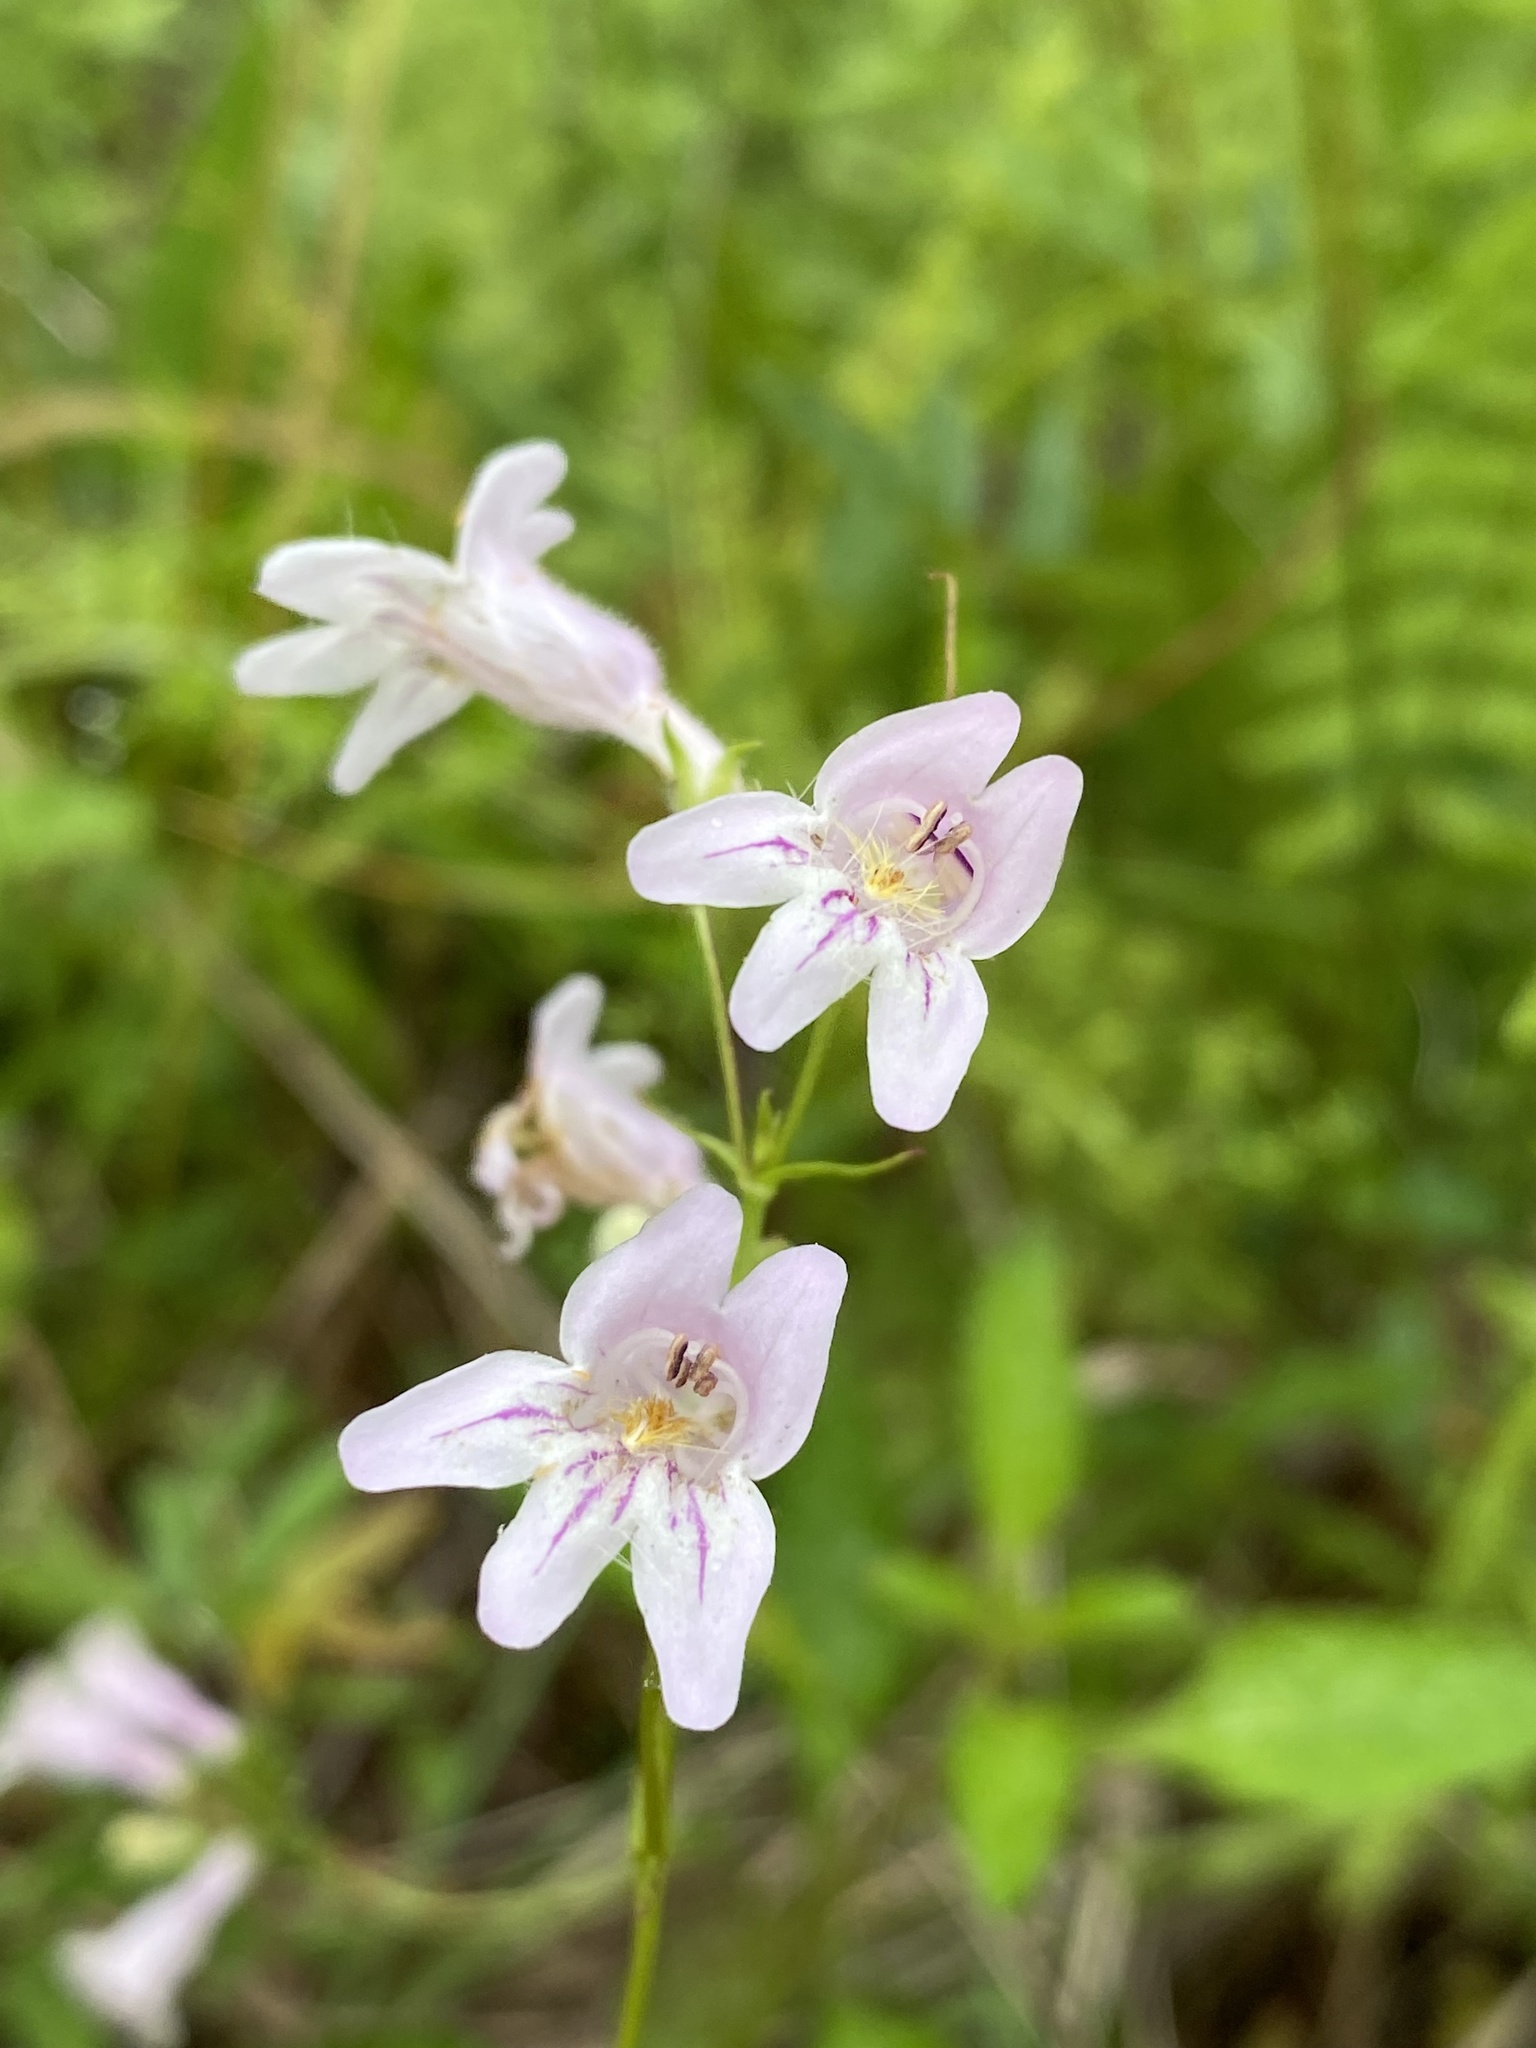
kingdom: Plantae
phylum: Tracheophyta
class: Magnoliopsida
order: Lamiales
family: Plantaginaceae
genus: Penstemon
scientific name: Penstemon laevigatus
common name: Eastern beardtongue
